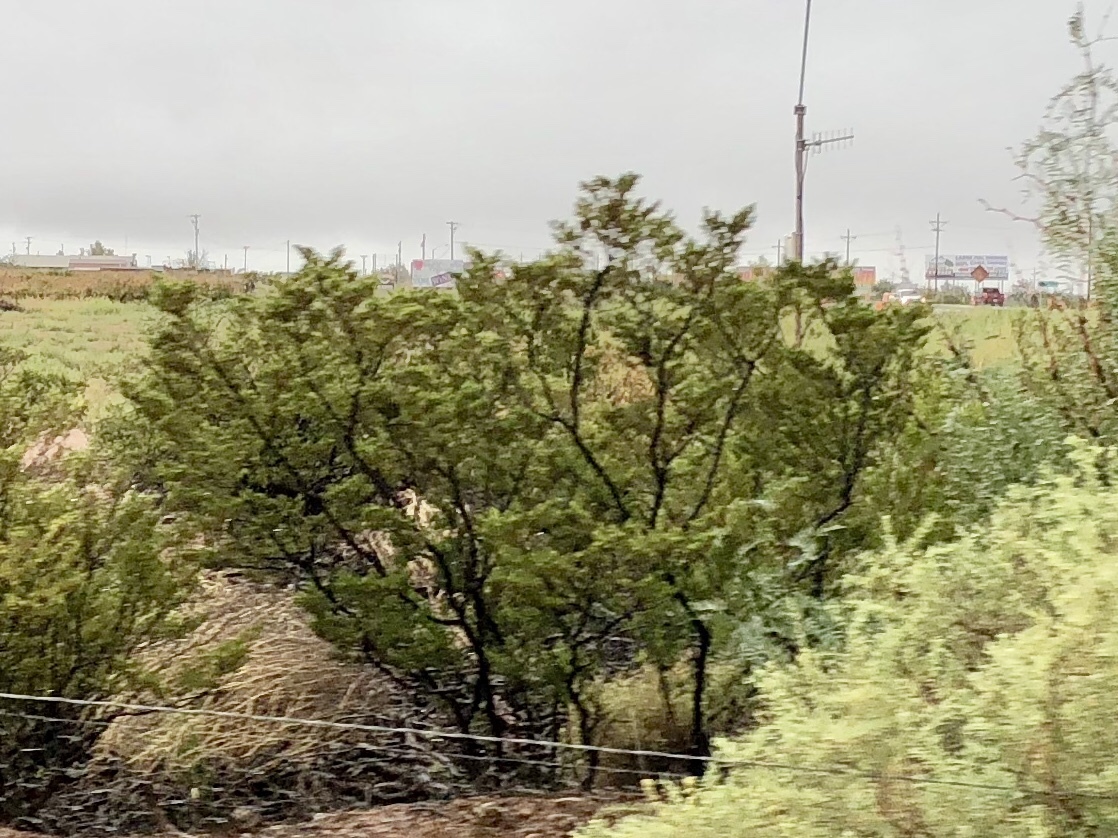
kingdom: Plantae
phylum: Tracheophyta
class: Magnoliopsida
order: Zygophyllales
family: Zygophyllaceae
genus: Larrea
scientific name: Larrea tridentata
